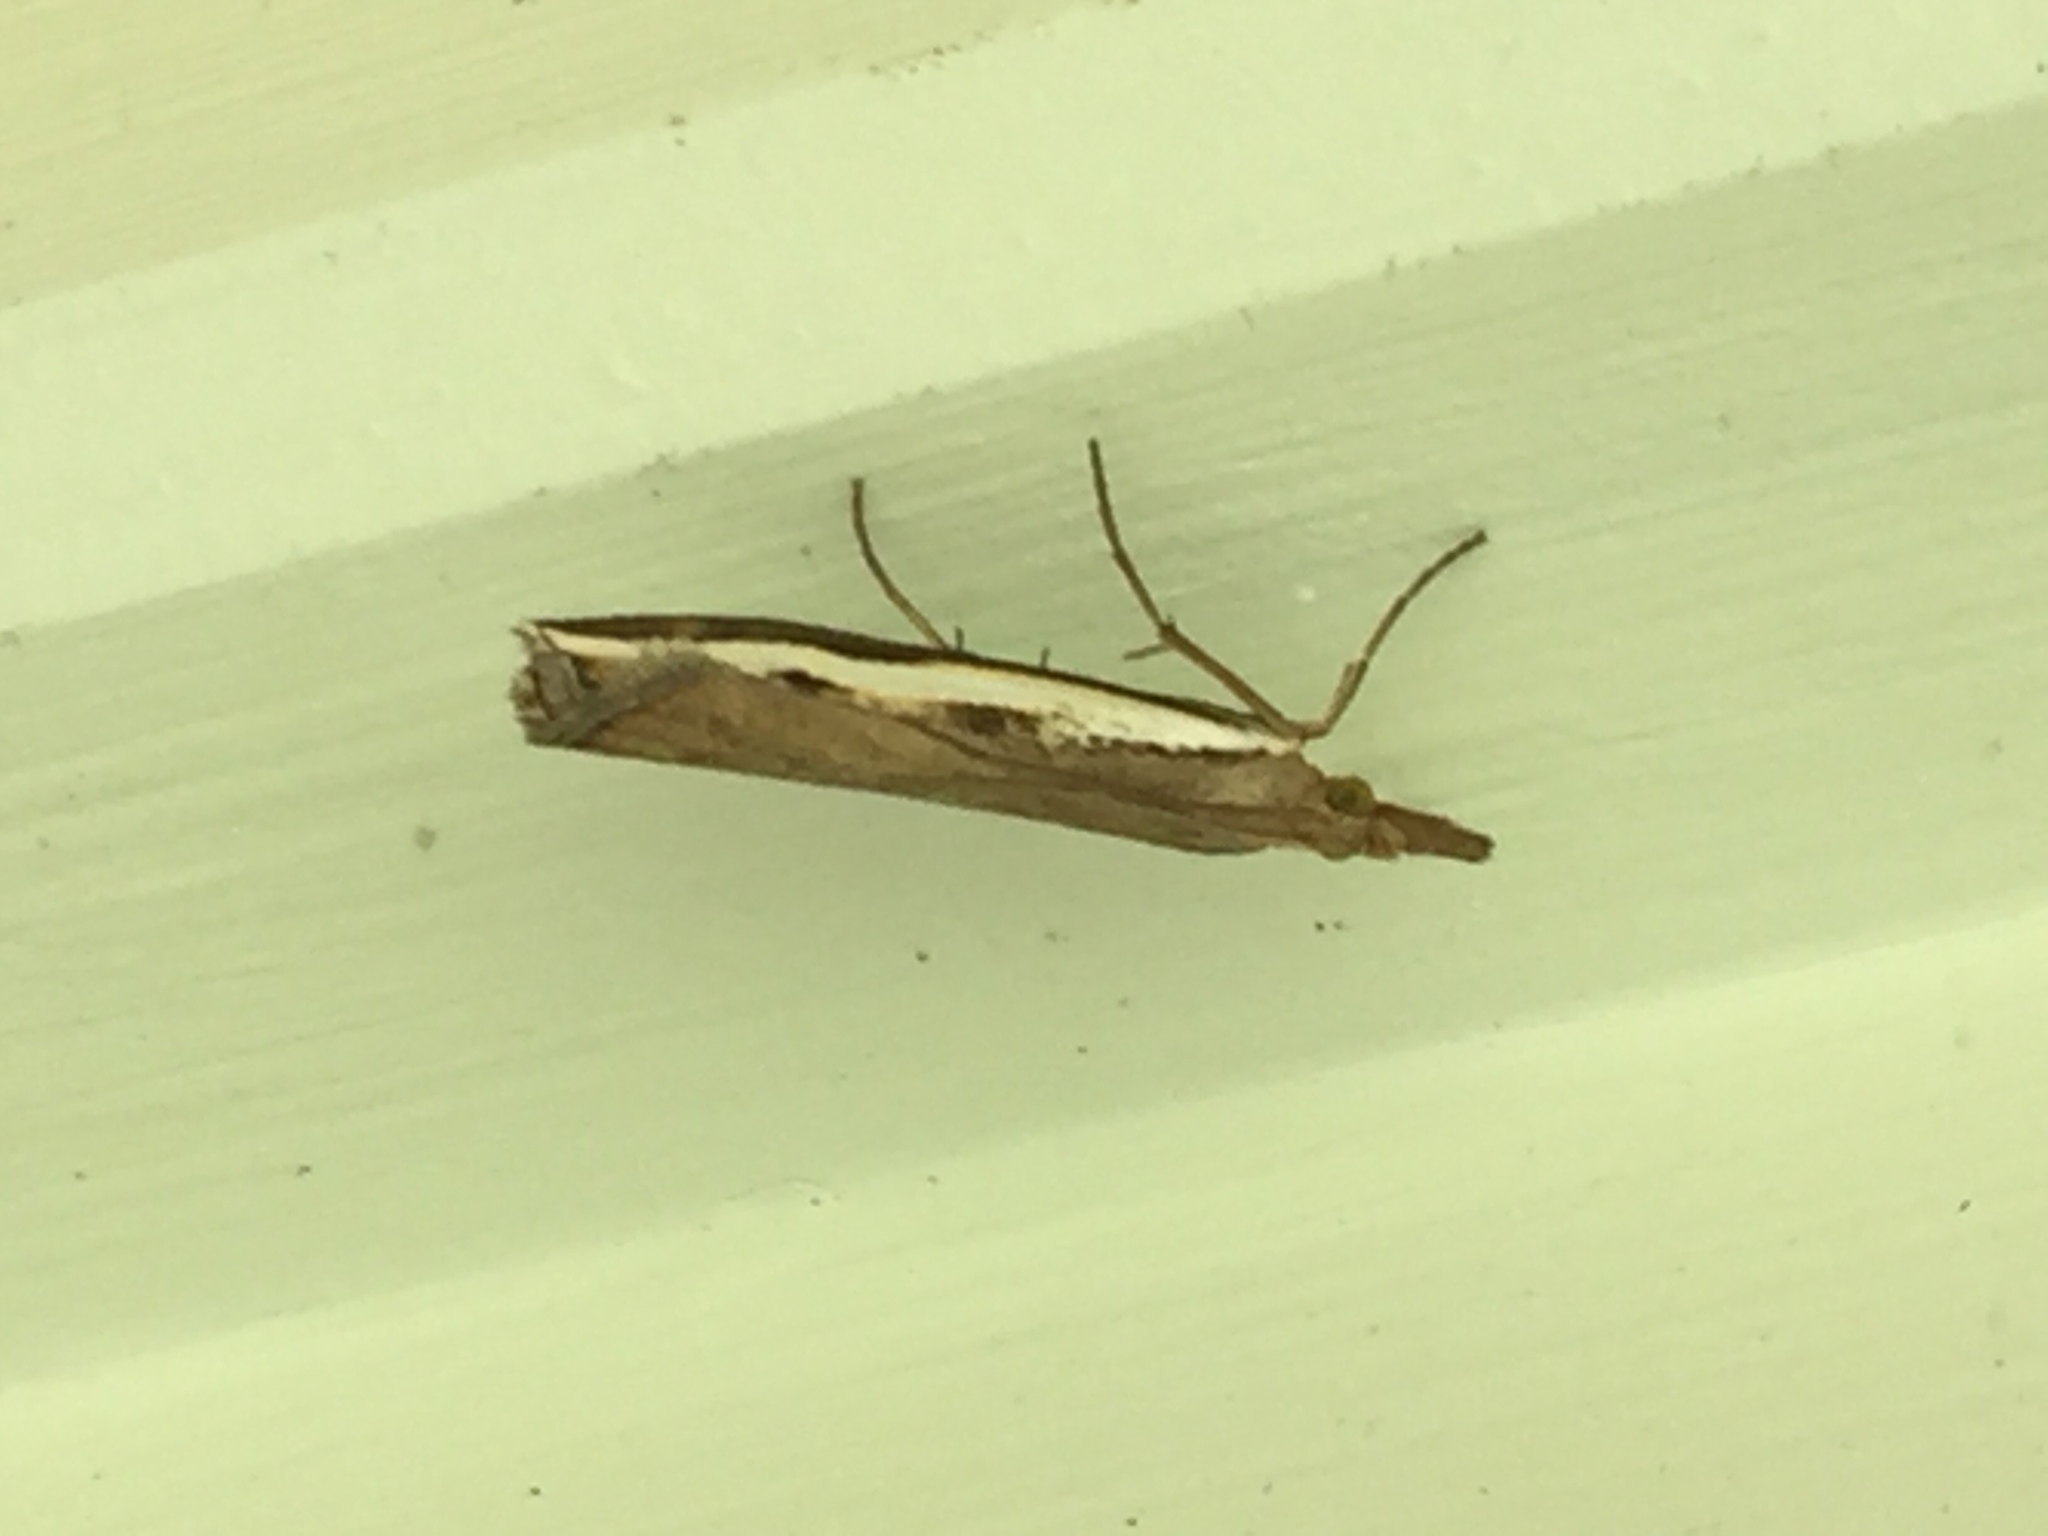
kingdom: Animalia
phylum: Arthropoda
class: Insecta
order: Lepidoptera
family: Crambidae
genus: Orocrambus
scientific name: Orocrambus flexuosellus
